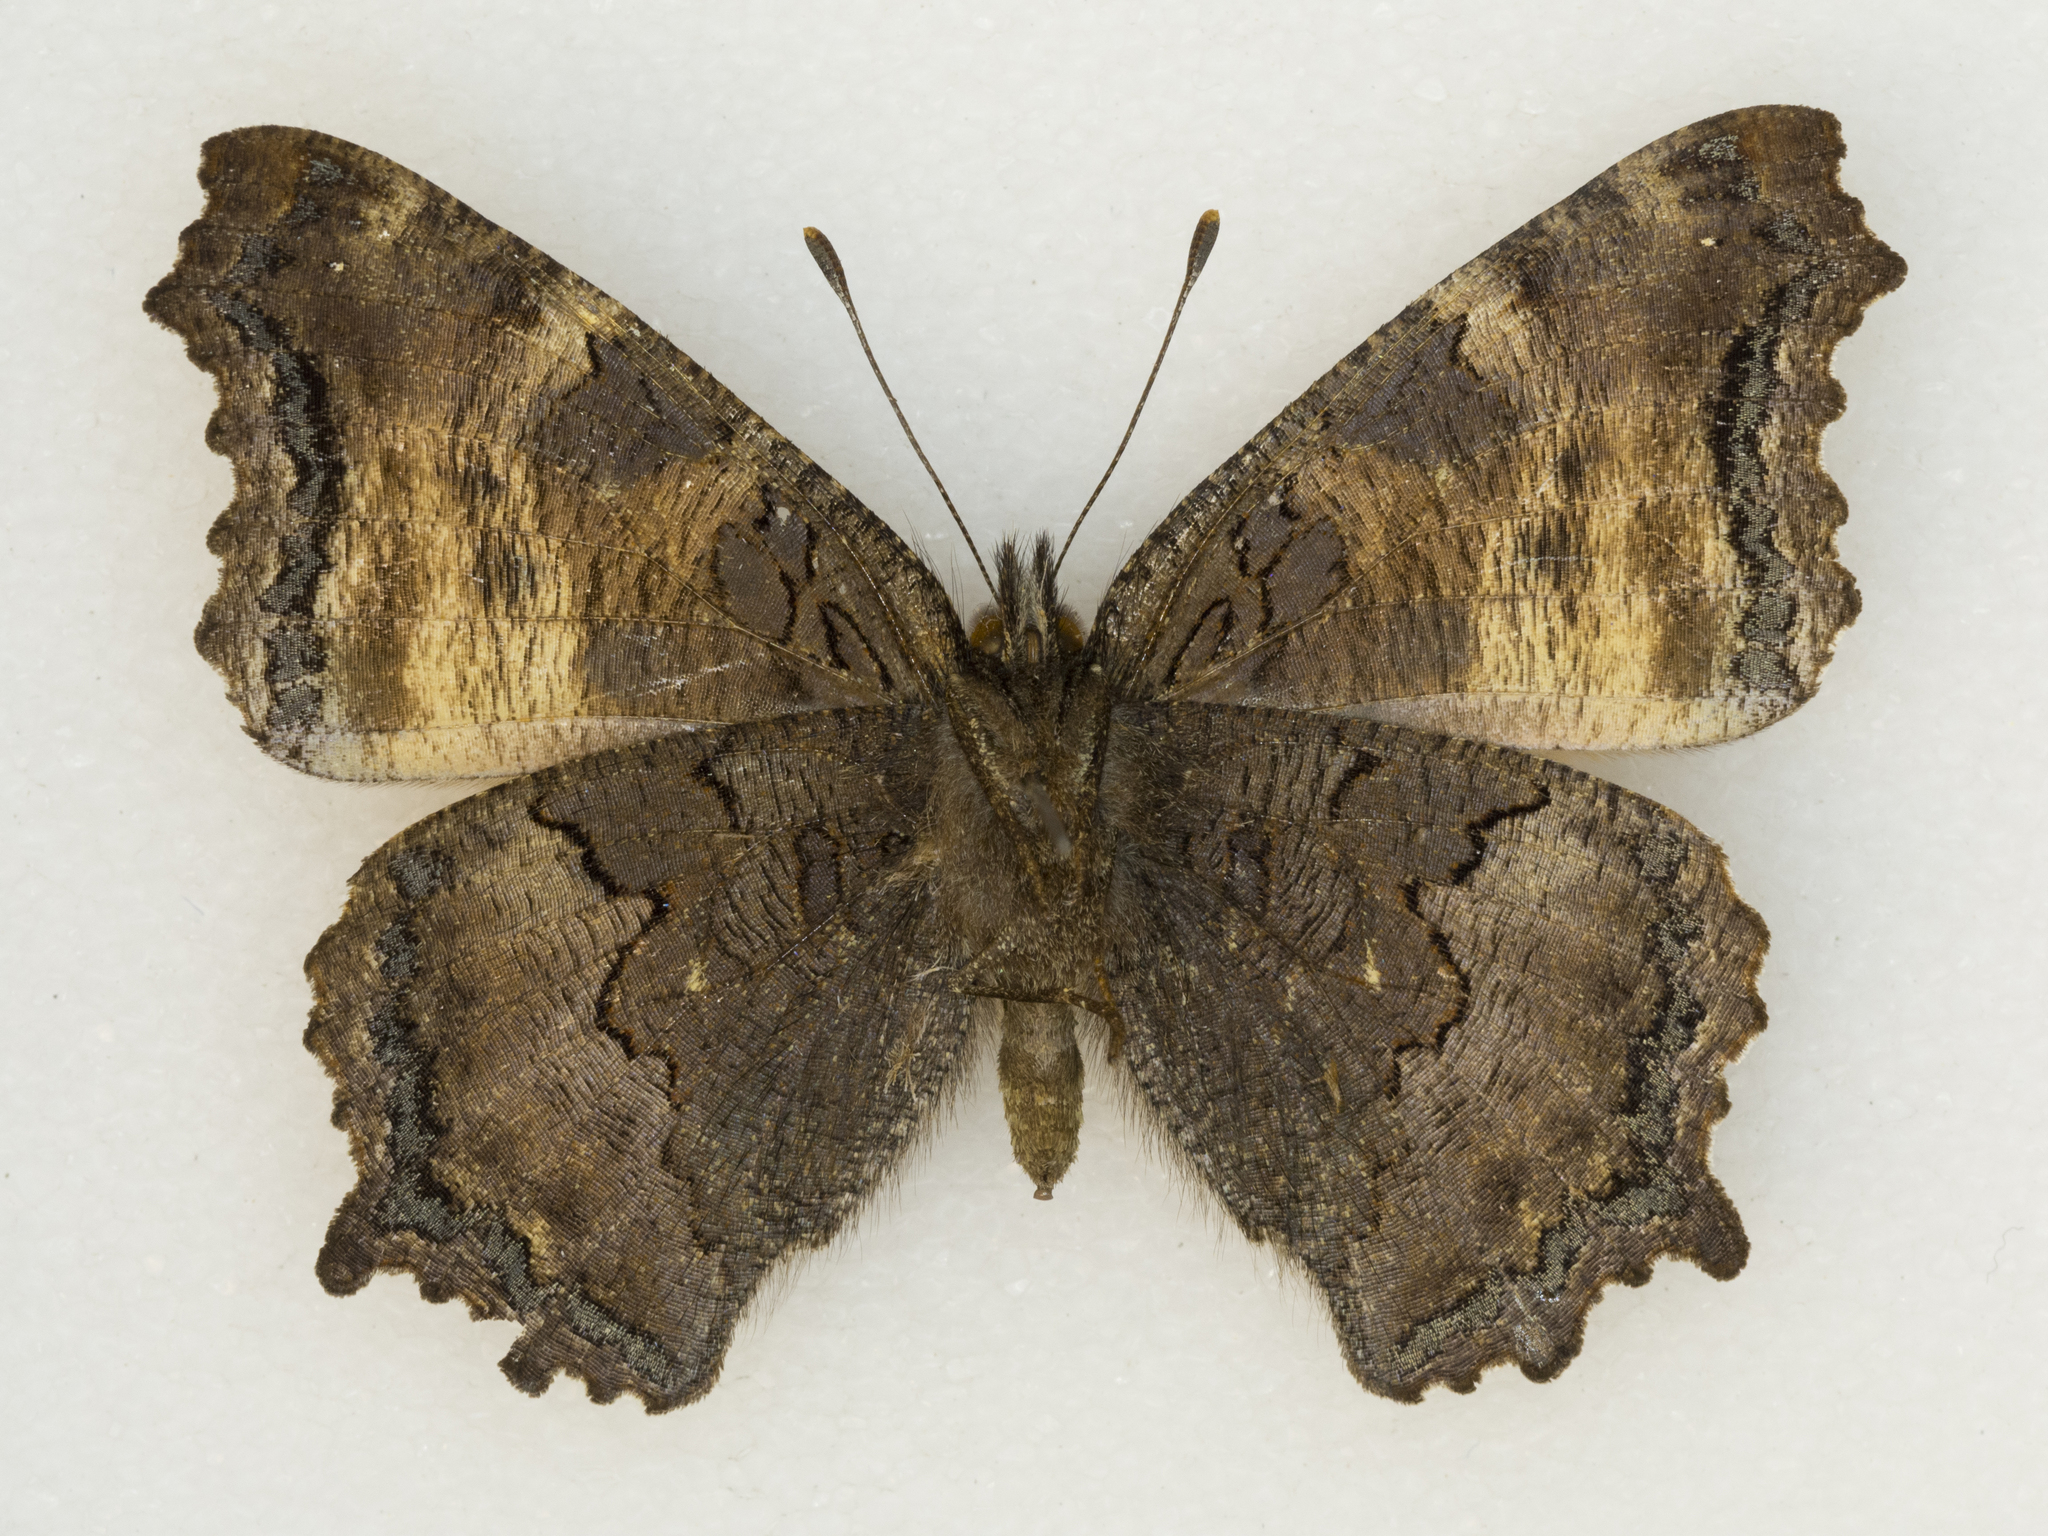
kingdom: Animalia
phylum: Arthropoda
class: Insecta
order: Lepidoptera
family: Nymphalidae
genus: Nymphalis
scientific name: Nymphalis californica
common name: California tortoiseshell
